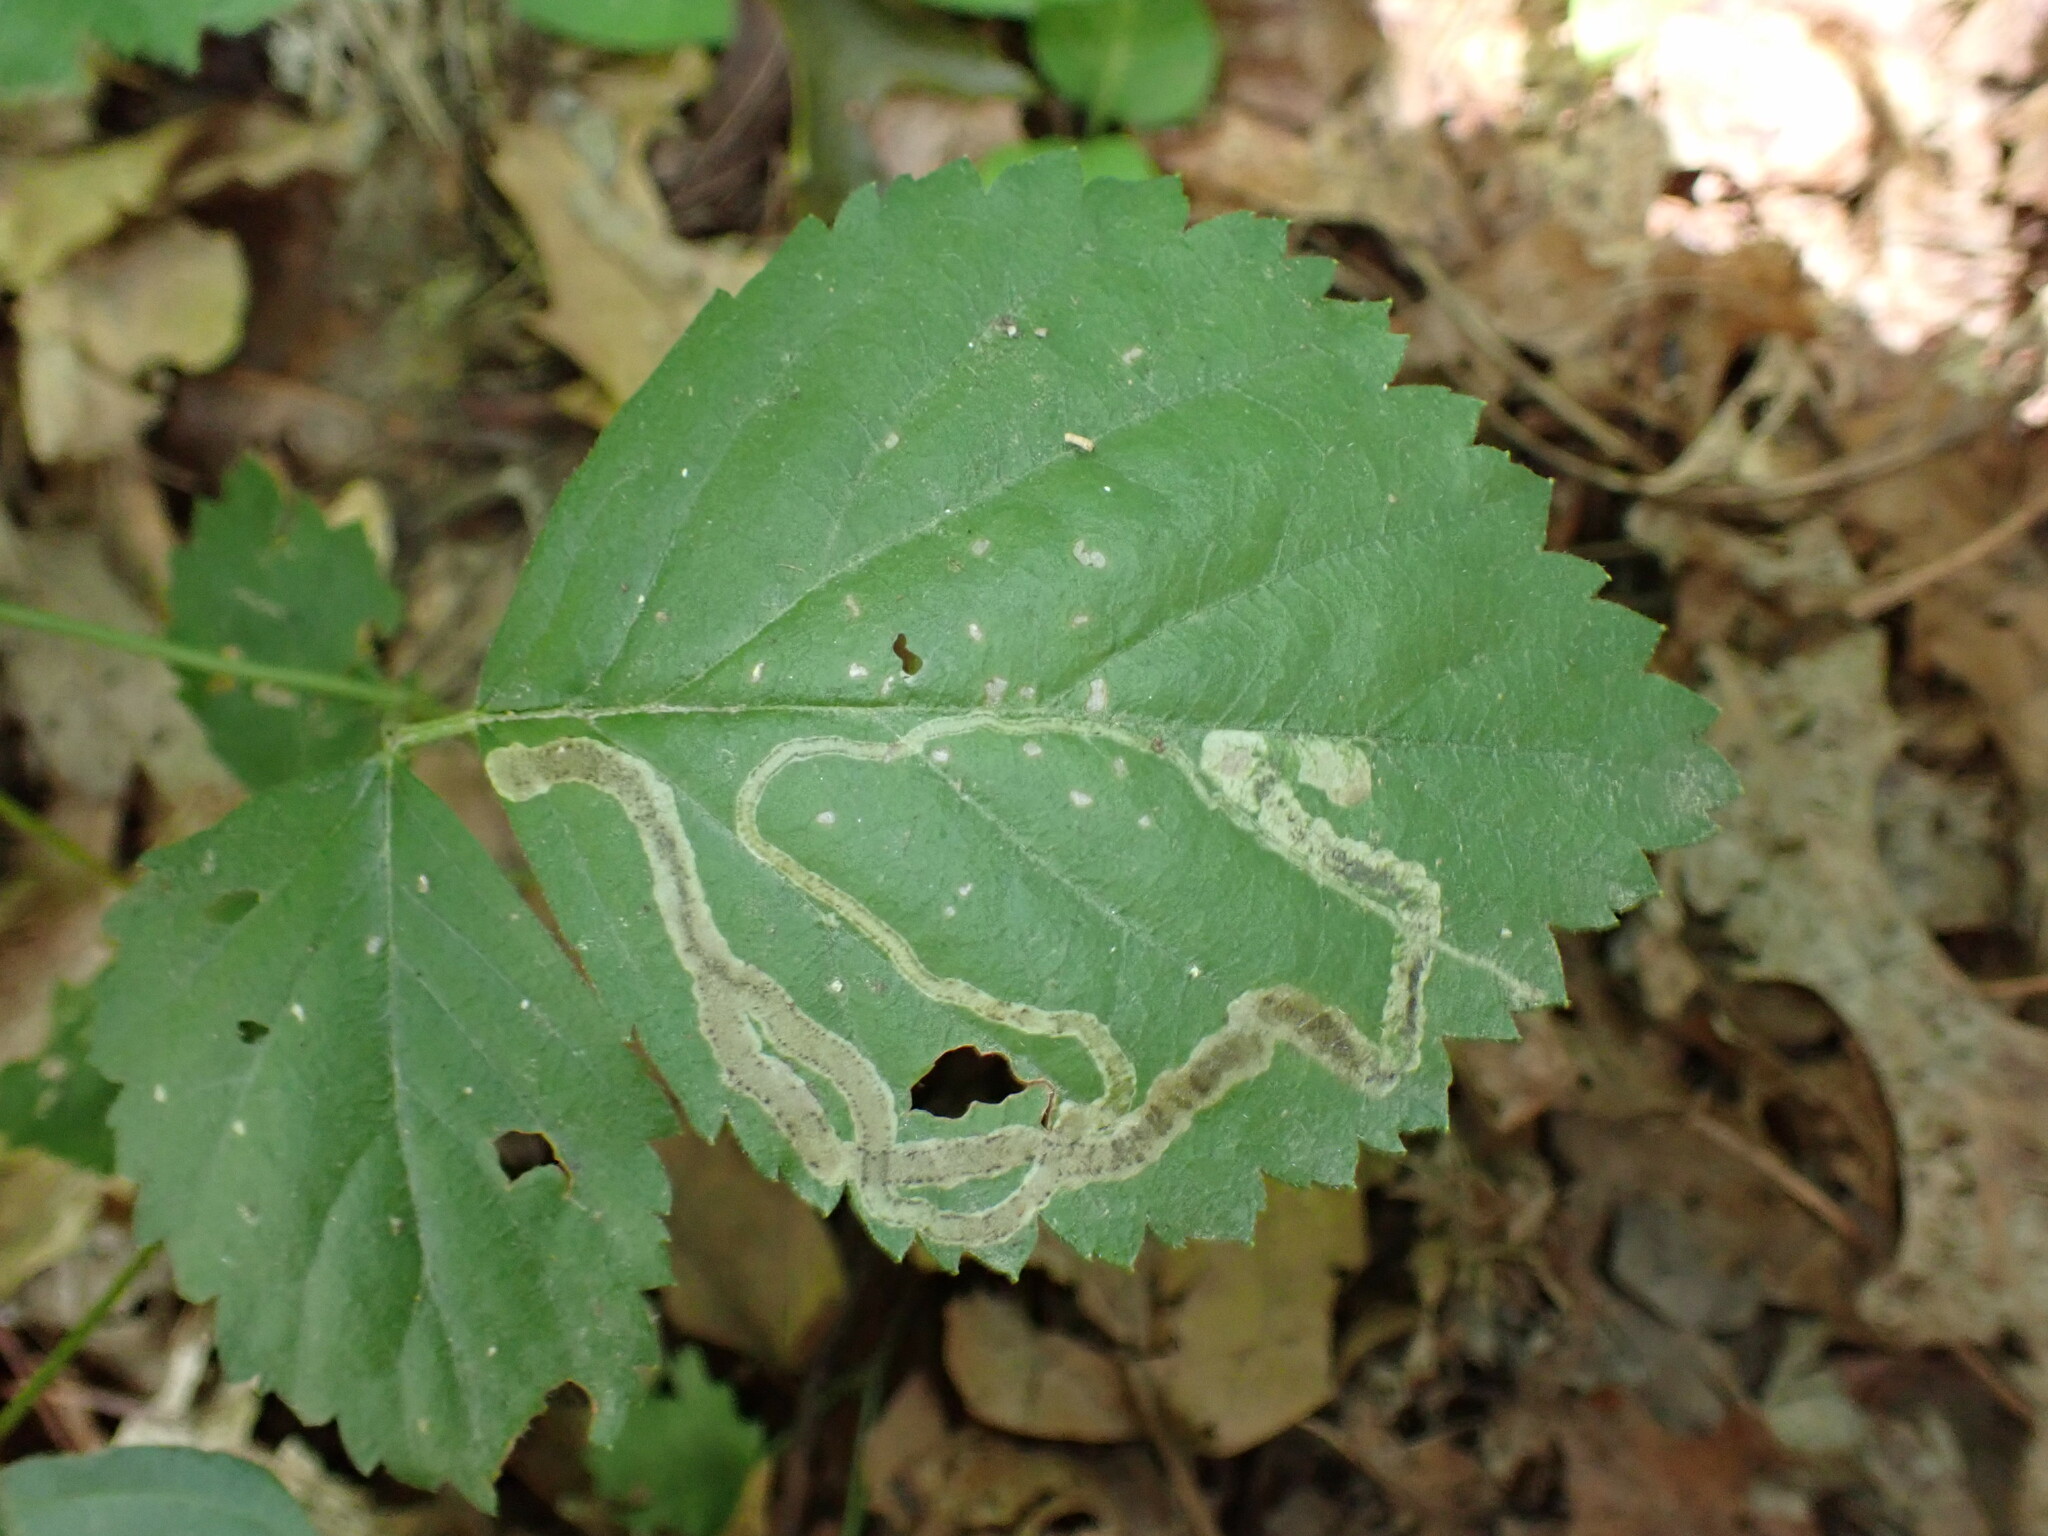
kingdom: Animalia
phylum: Arthropoda
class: Insecta
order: Diptera
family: Agromyzidae
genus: Agromyza
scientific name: Agromyza vockerothi
